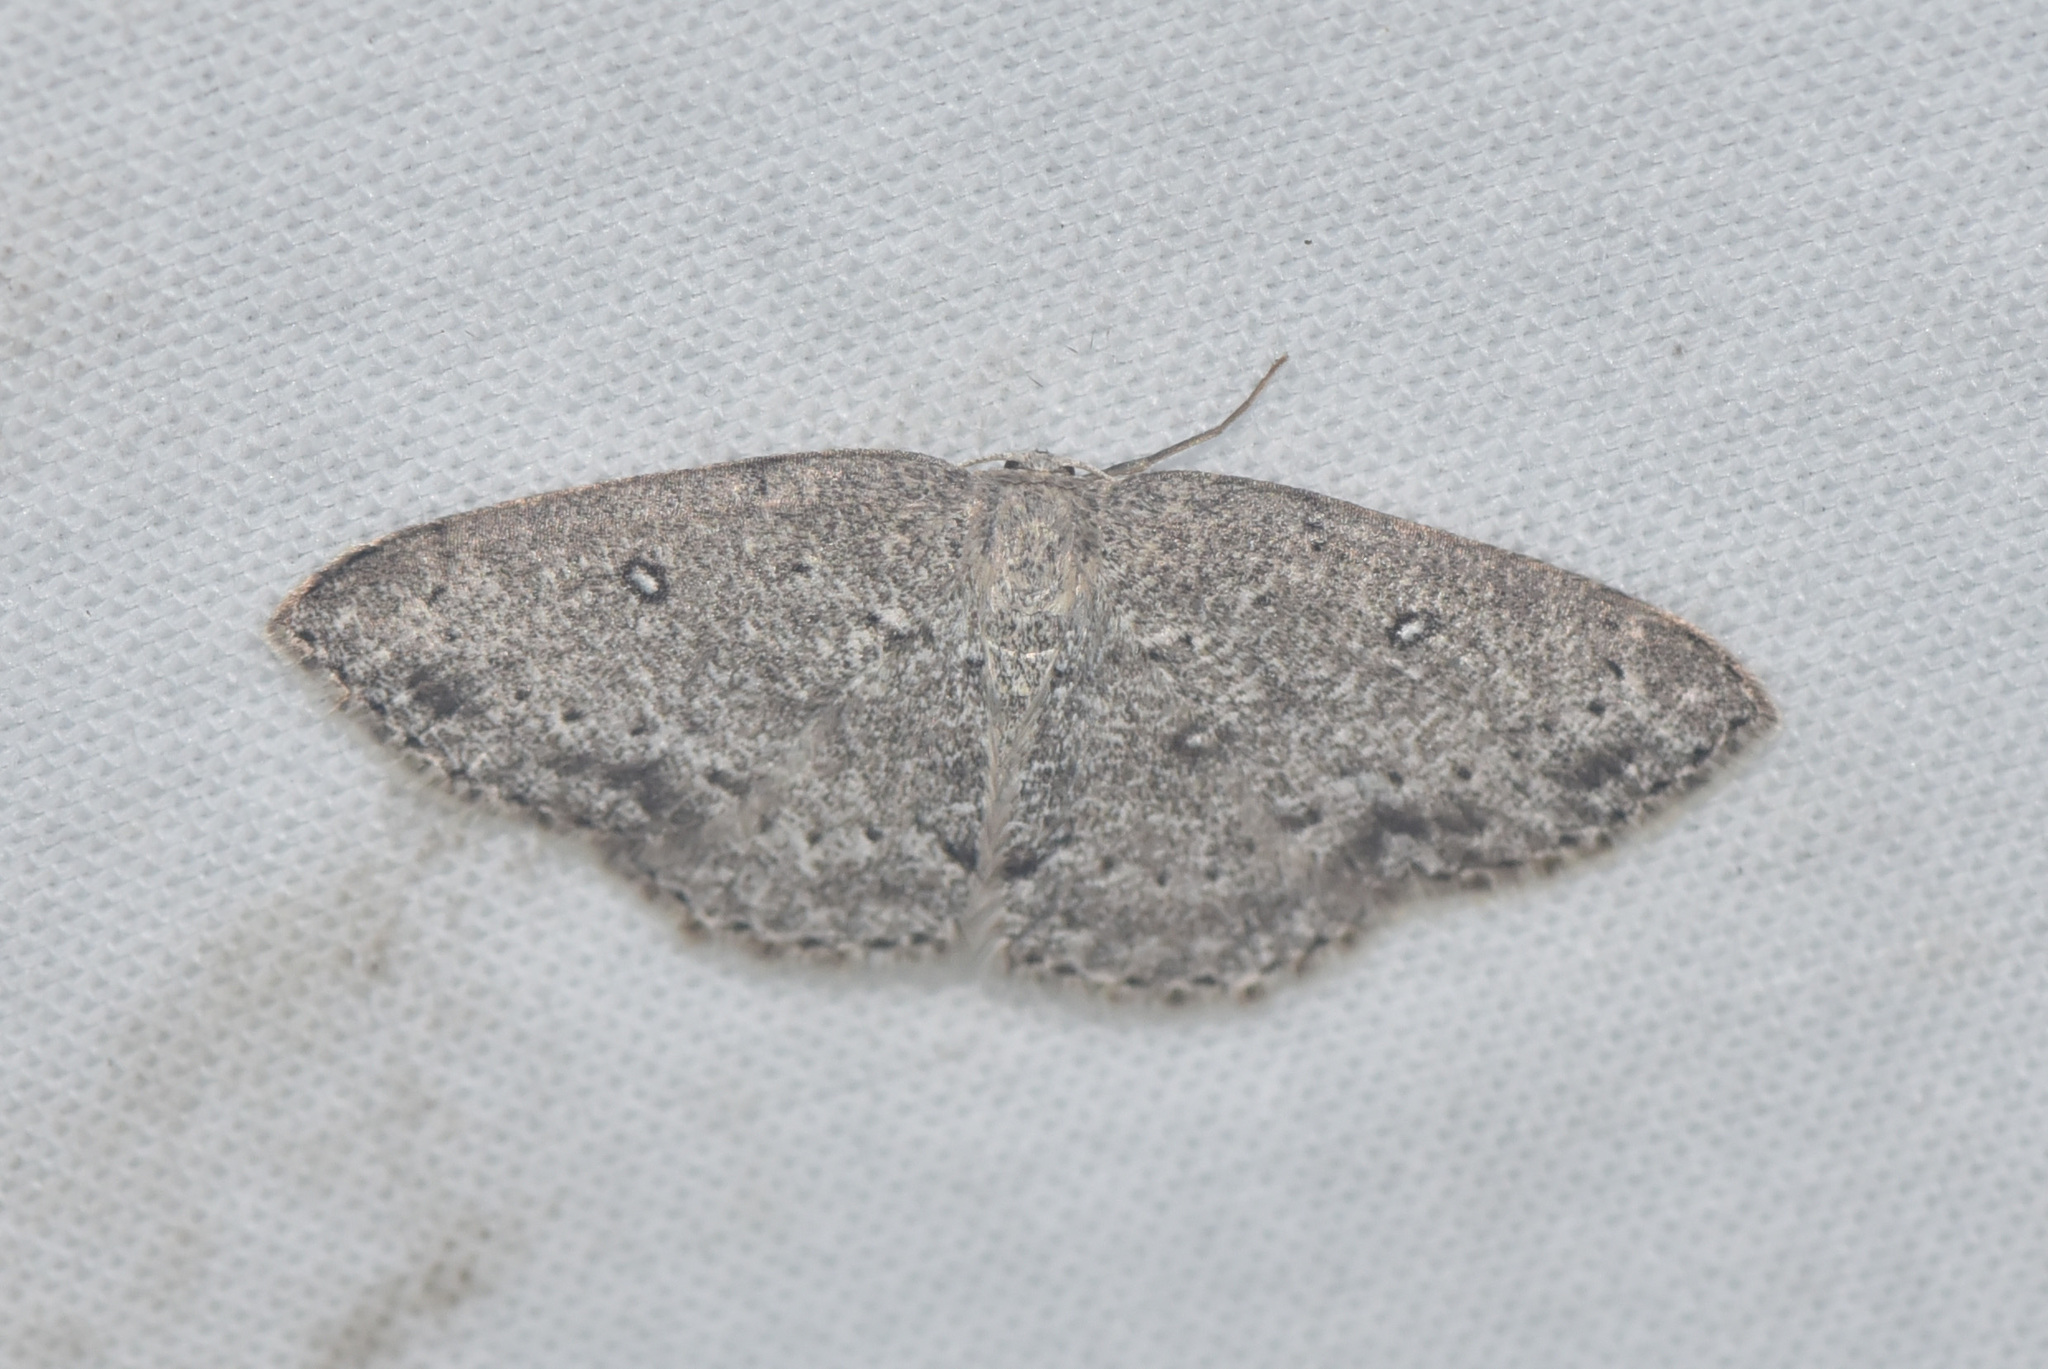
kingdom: Animalia
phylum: Arthropoda
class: Insecta
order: Lepidoptera
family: Geometridae
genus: Cyclophora
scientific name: Cyclophora pendulinaria
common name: Sweet fern geometer
